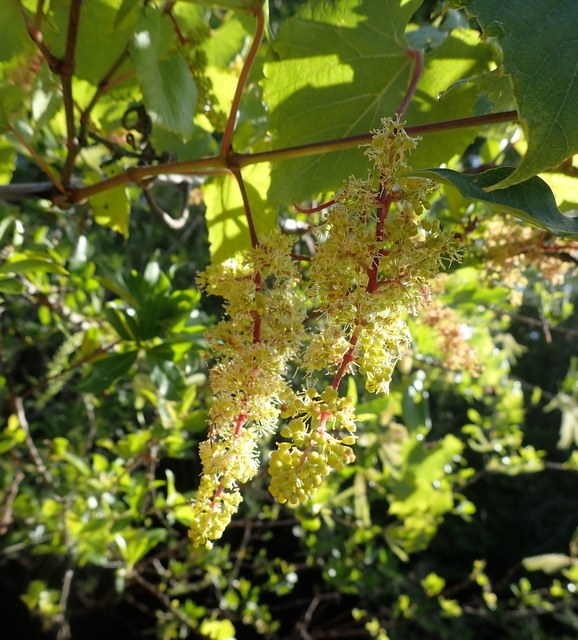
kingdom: Plantae
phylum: Tracheophyta
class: Magnoliopsida
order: Vitales
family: Vitaceae
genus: Vitis
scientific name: Vitis cinerea
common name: Ashy grape
